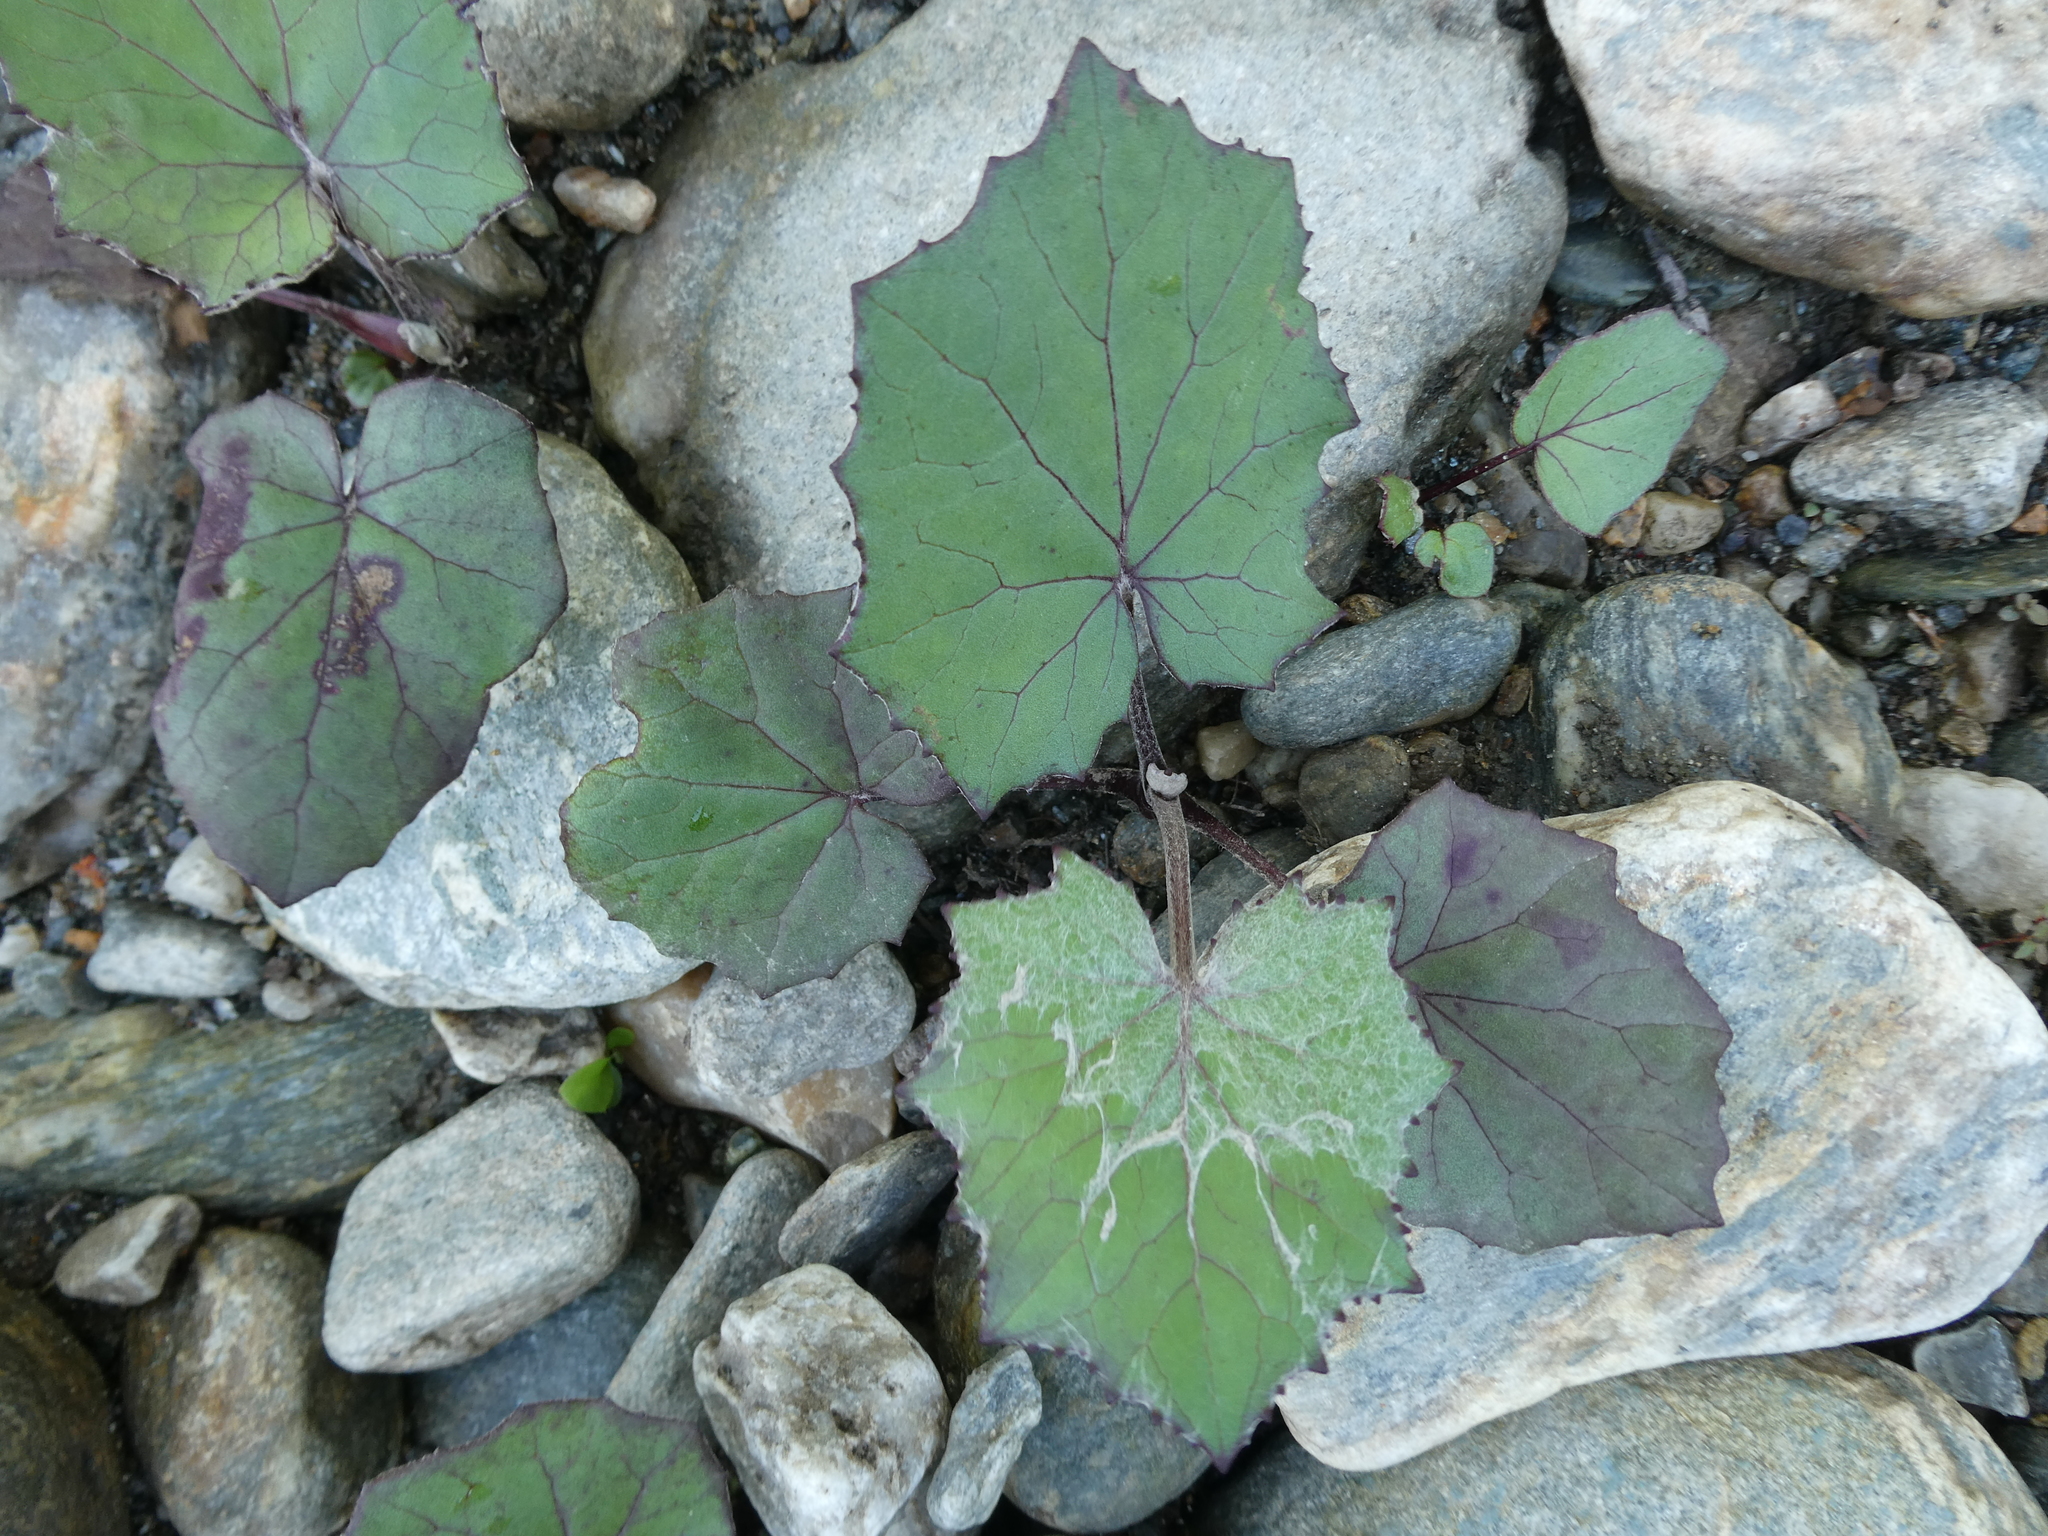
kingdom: Plantae
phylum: Tracheophyta
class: Magnoliopsida
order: Asterales
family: Asteraceae
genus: Tussilago
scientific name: Tussilago farfara
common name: Coltsfoot
